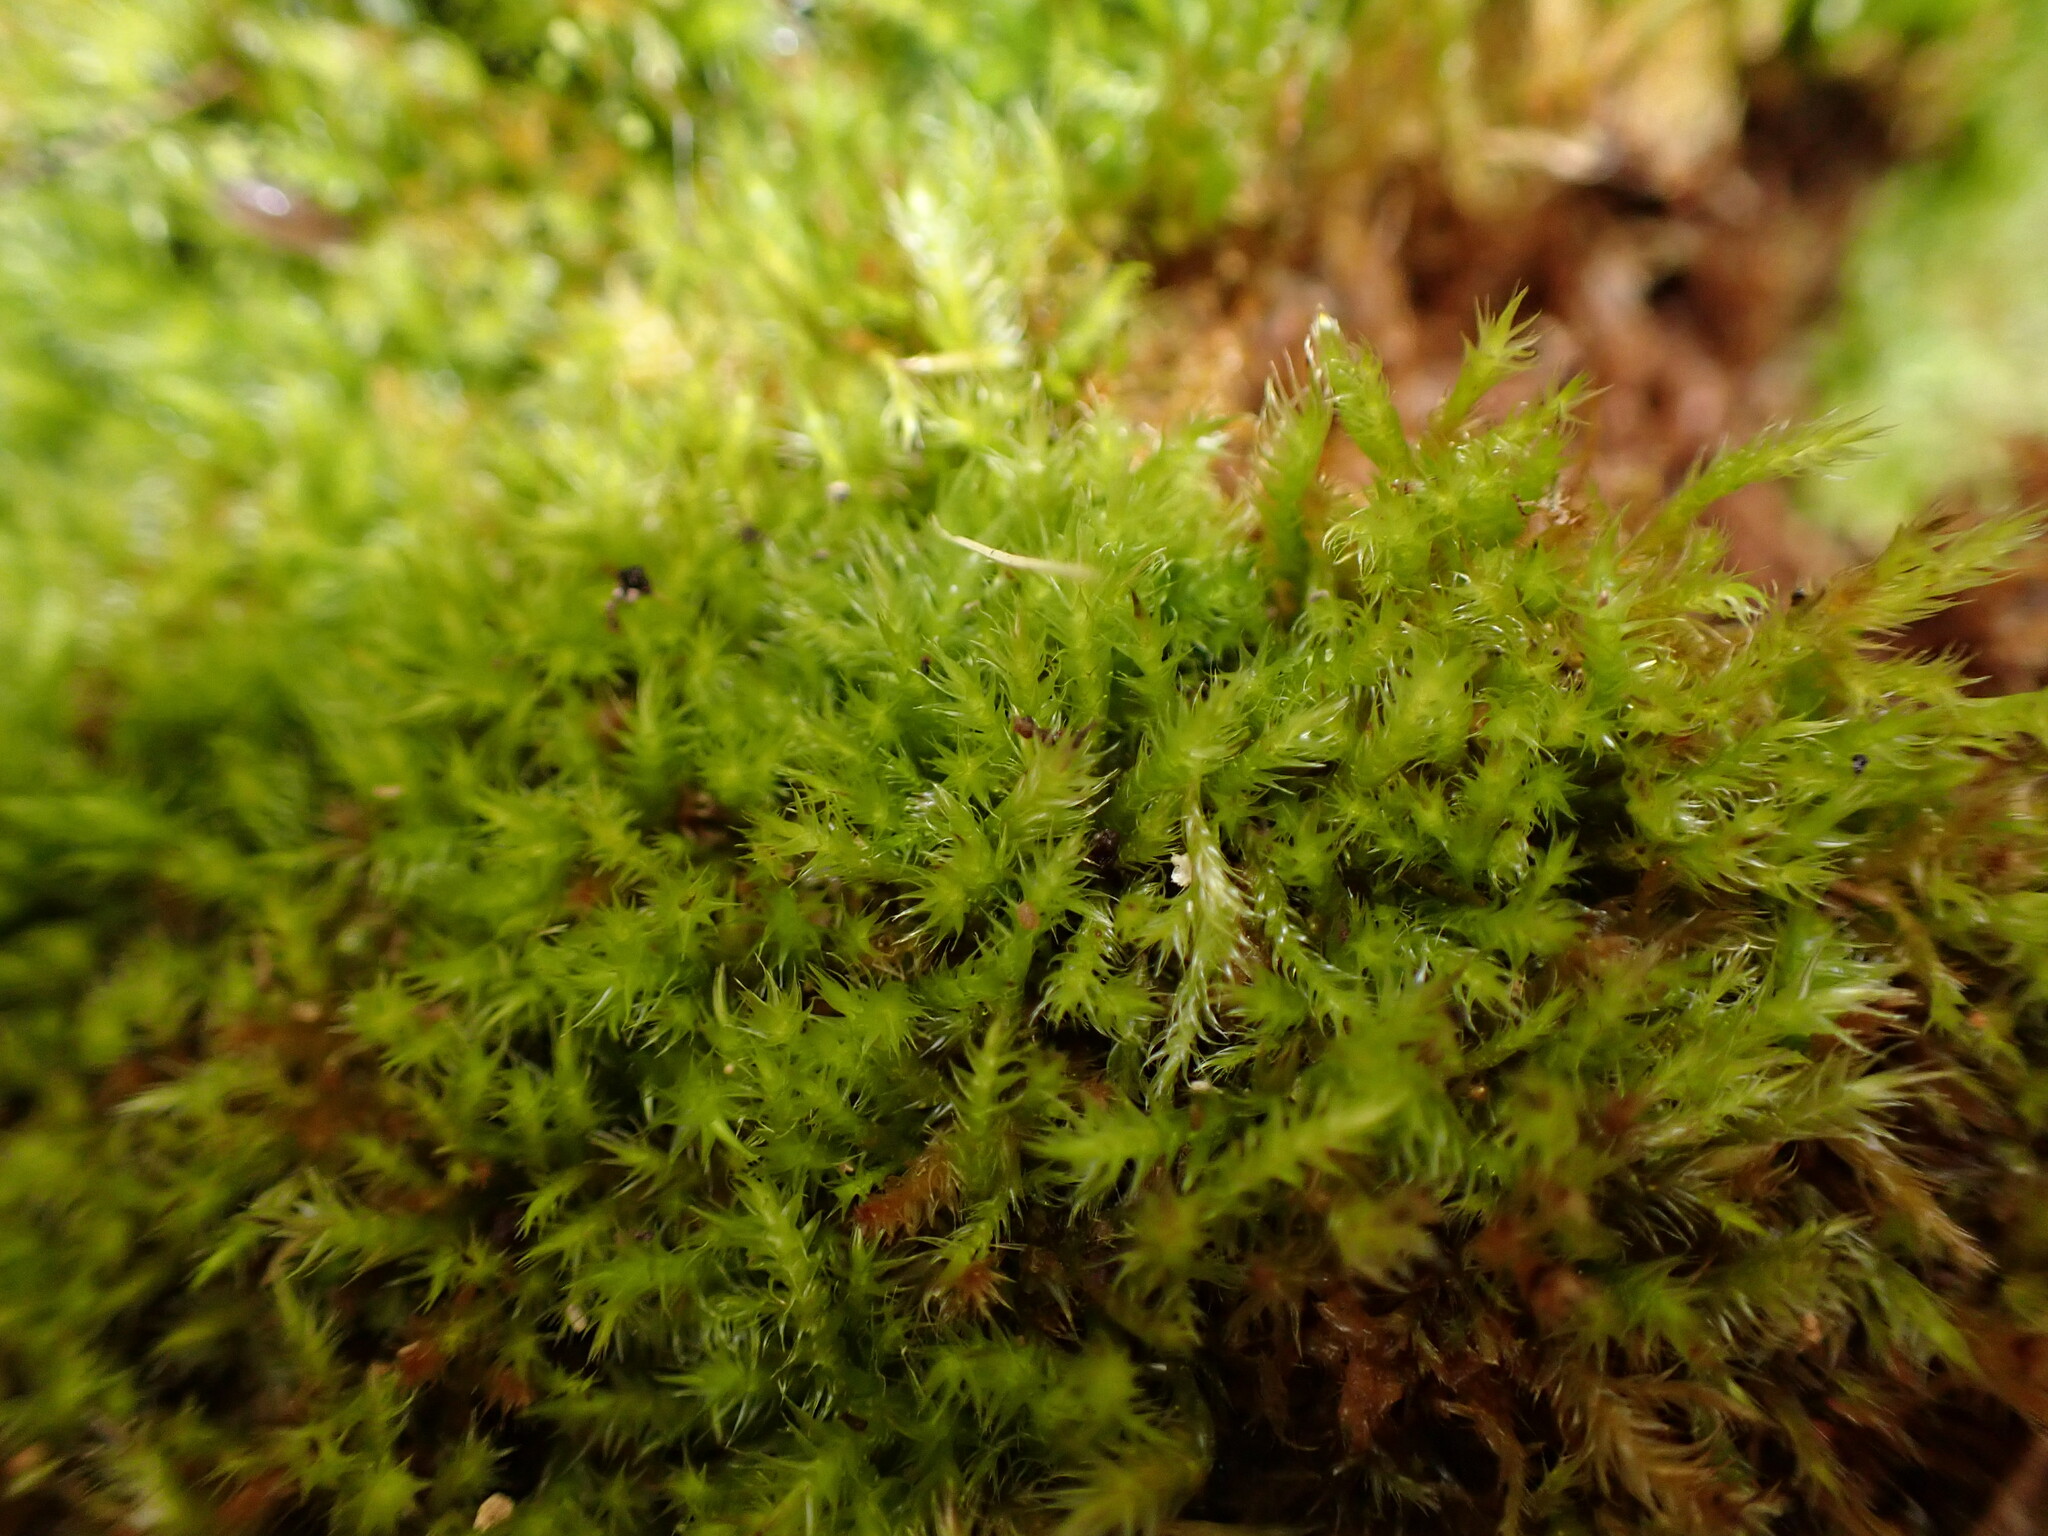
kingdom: Plantae
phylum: Bryophyta
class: Bryopsida
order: Hypnales
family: Pylaisiaceae
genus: Aquilonium
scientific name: Aquilonium adscendens
